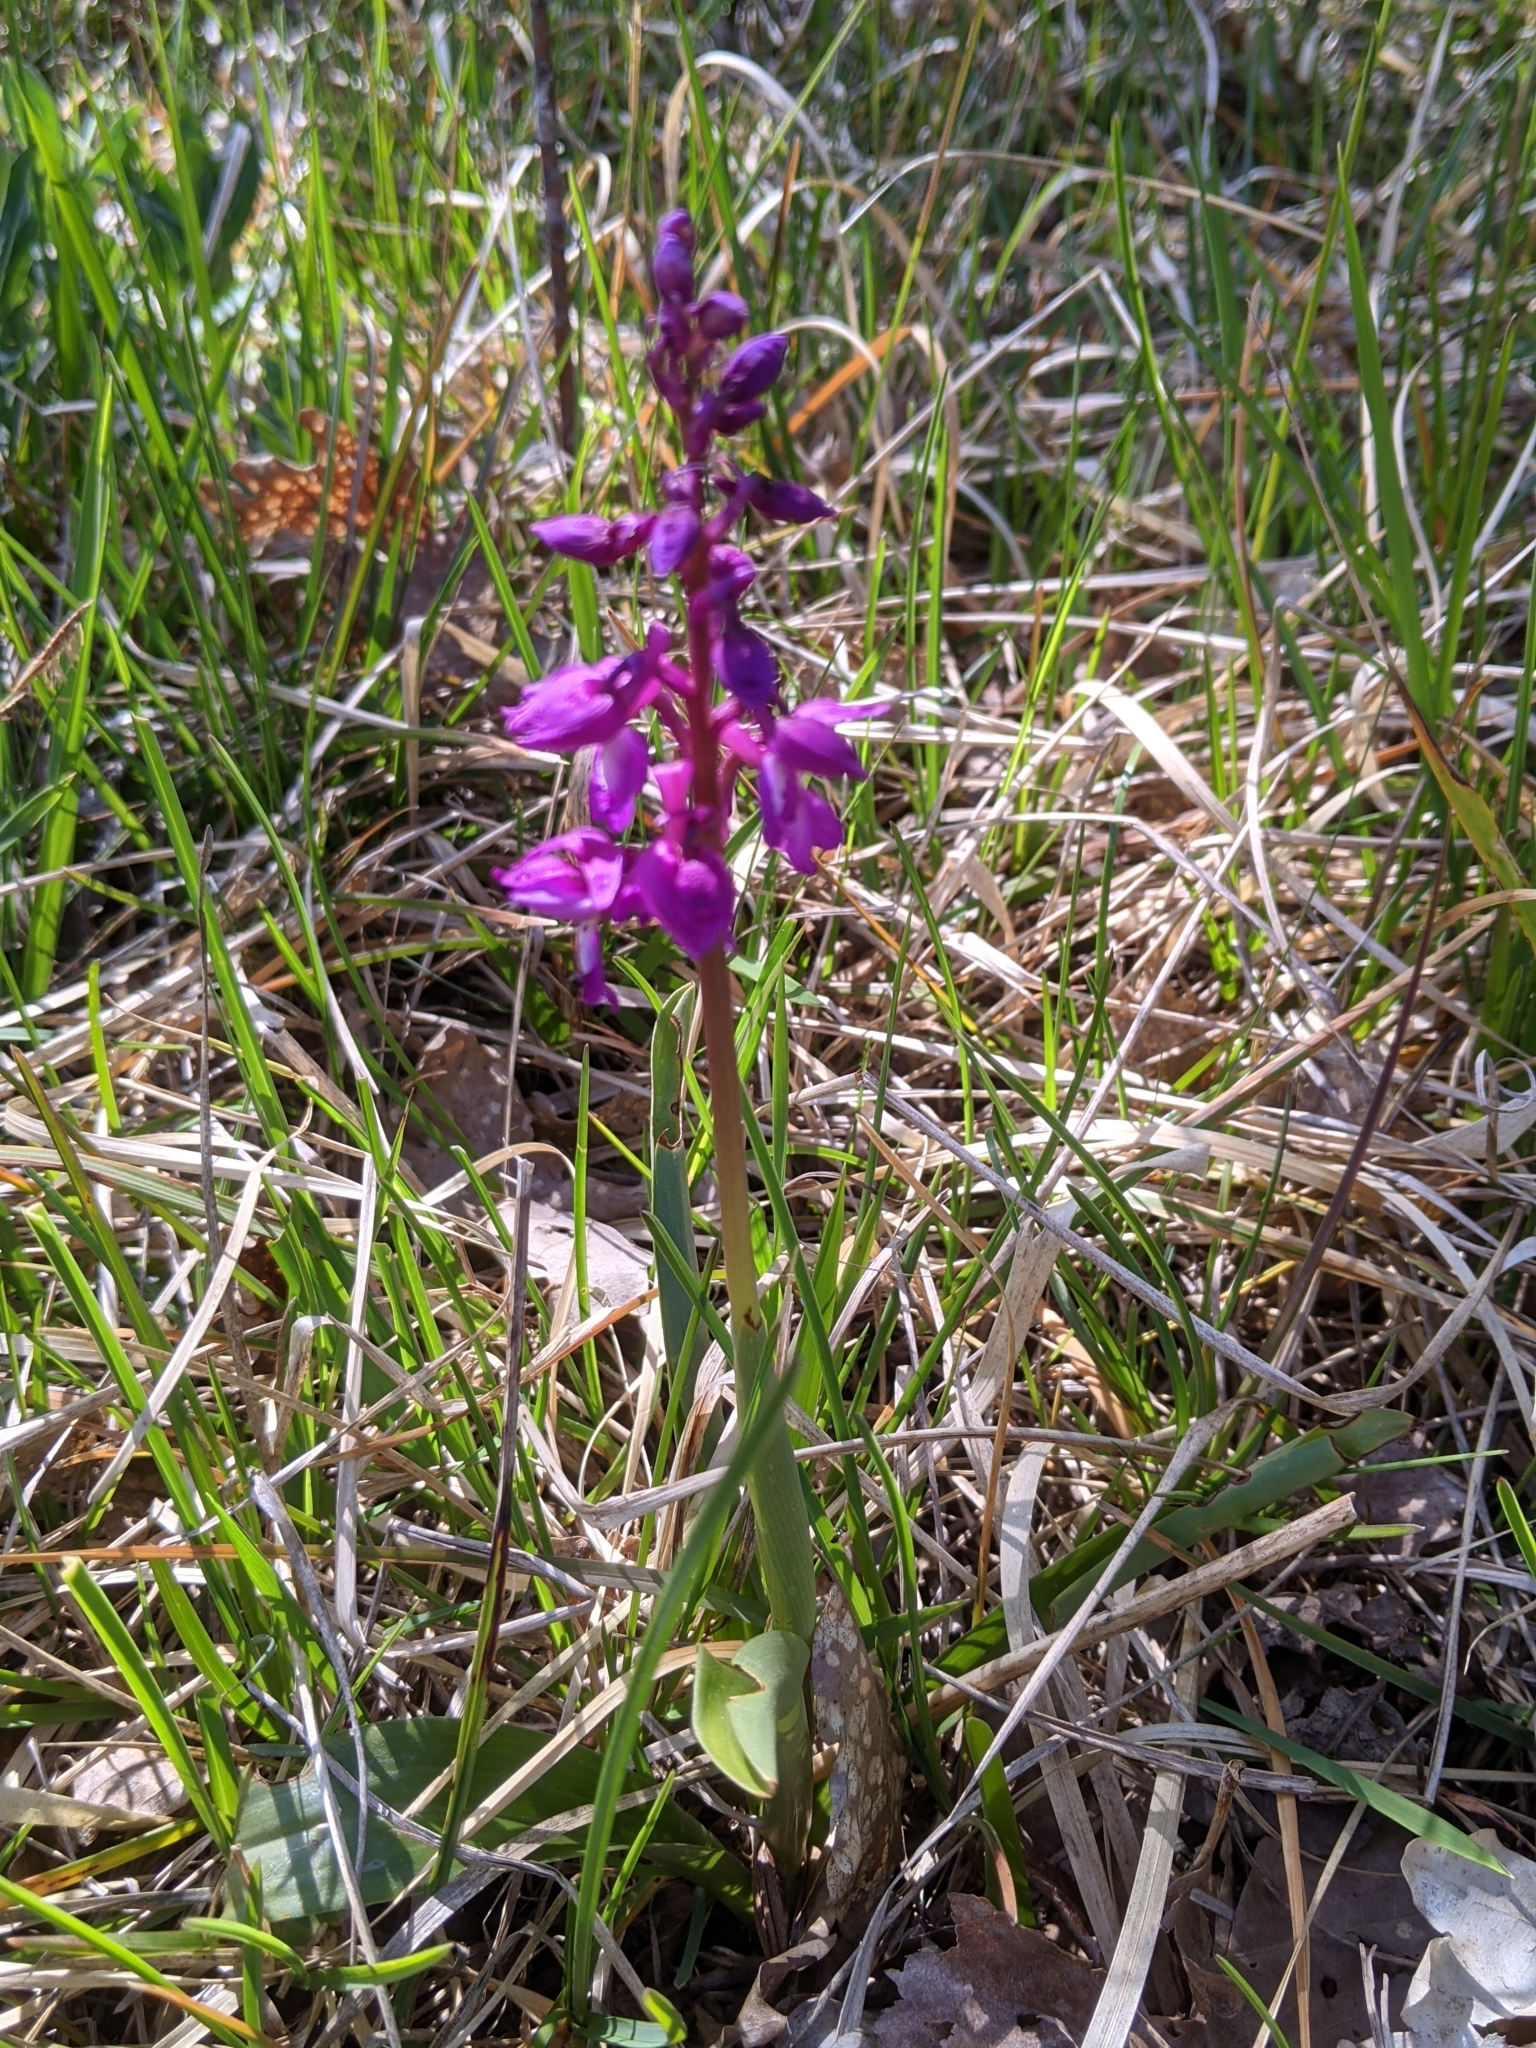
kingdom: Plantae
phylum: Tracheophyta
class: Liliopsida
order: Asparagales
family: Orchidaceae
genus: Orchis
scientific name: Orchis mascula
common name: Early-purple orchid
